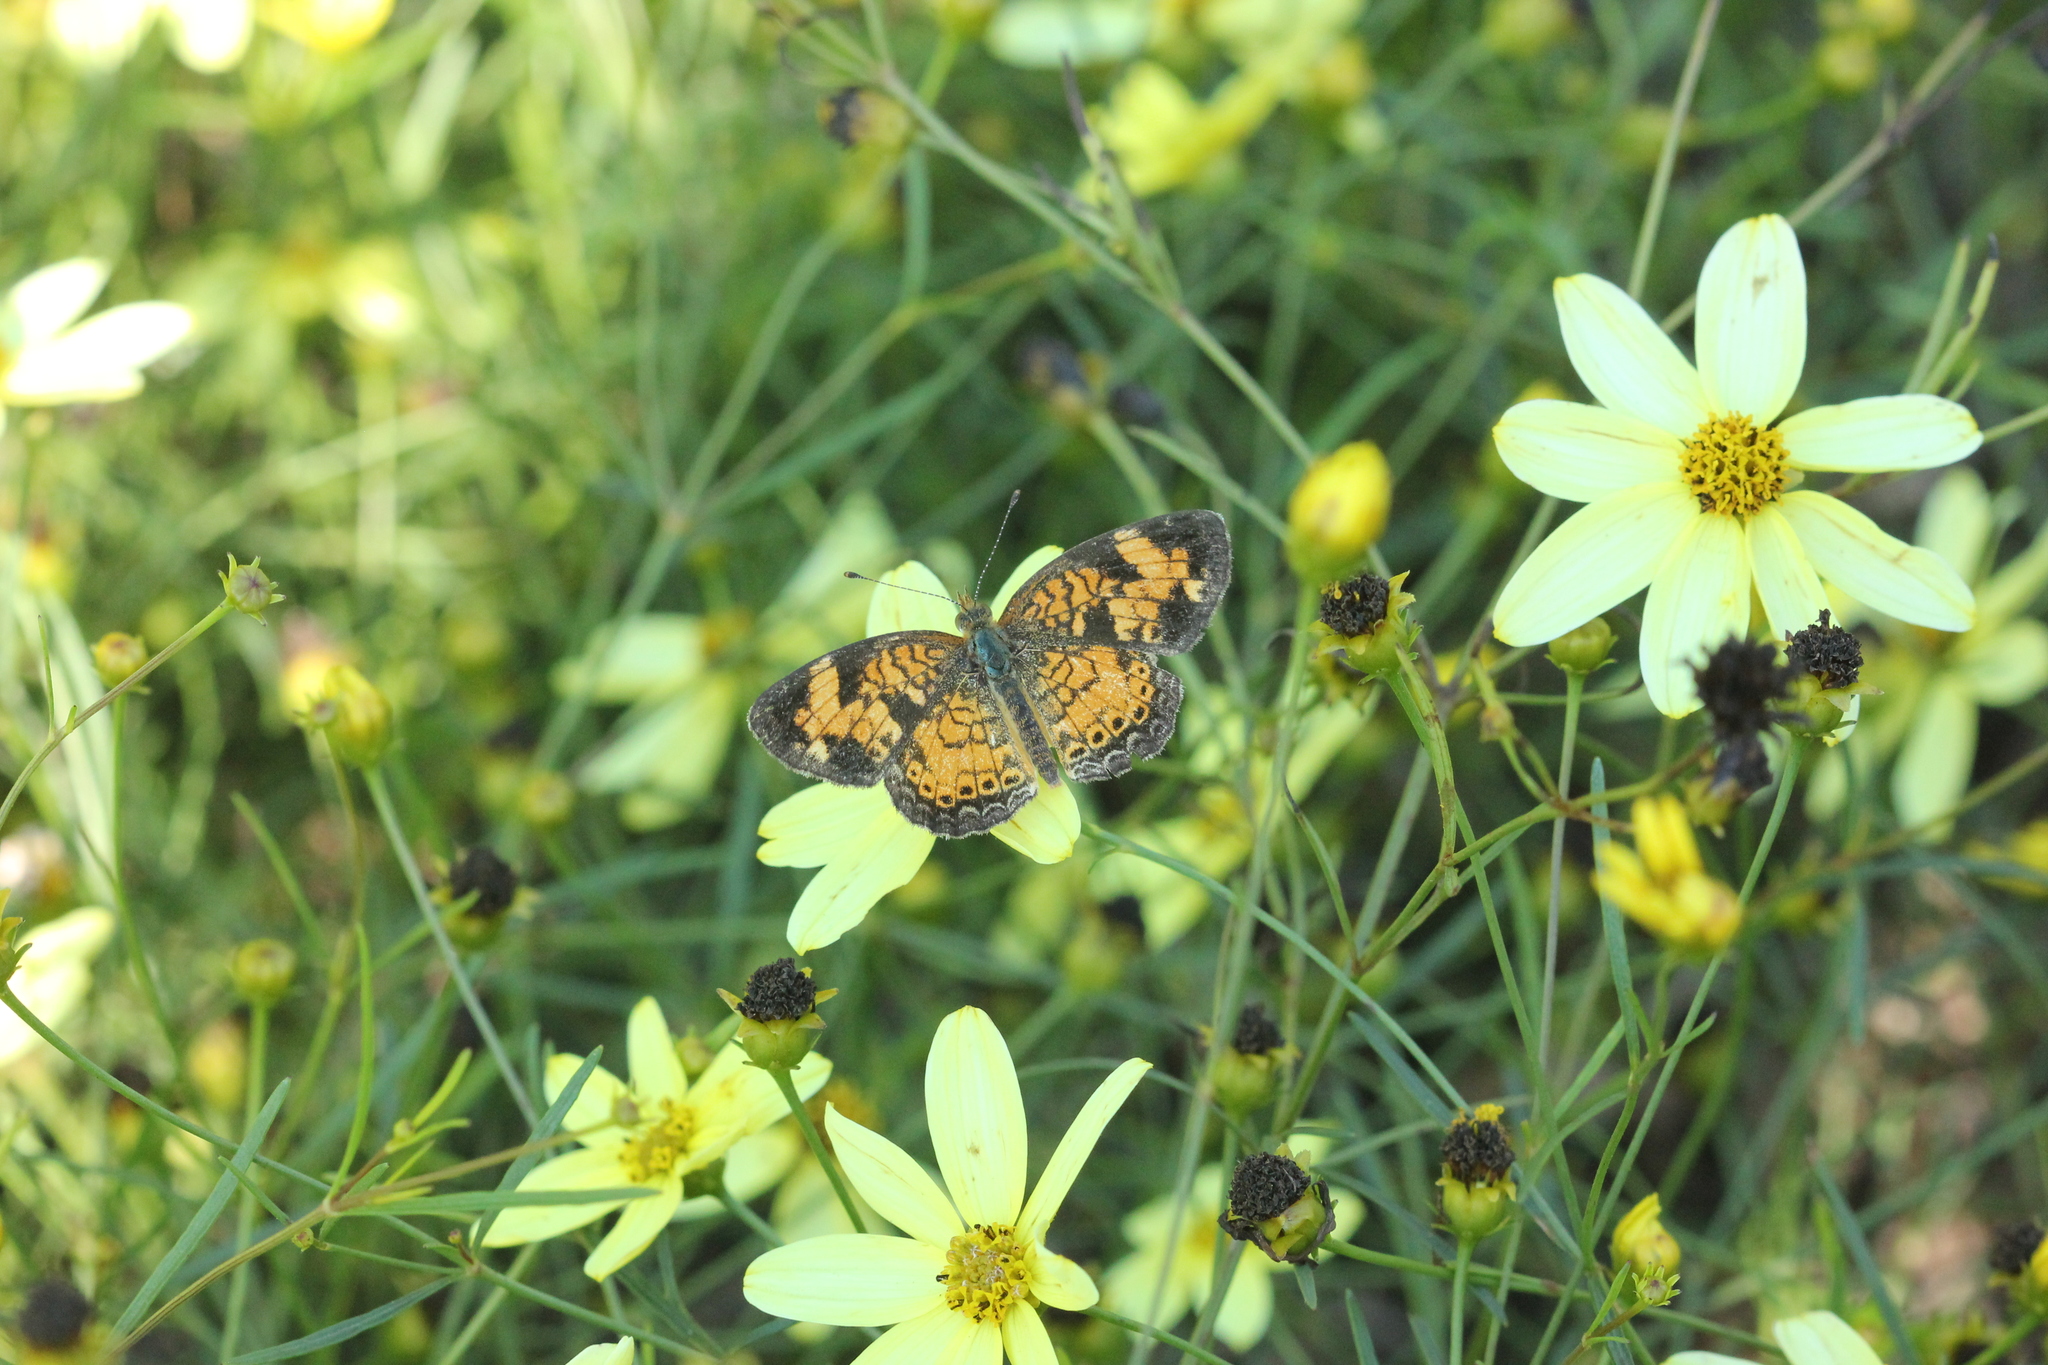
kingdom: Animalia
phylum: Arthropoda
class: Insecta
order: Lepidoptera
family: Nymphalidae
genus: Phyciodes
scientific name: Phyciodes tharos
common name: Pearl crescent
